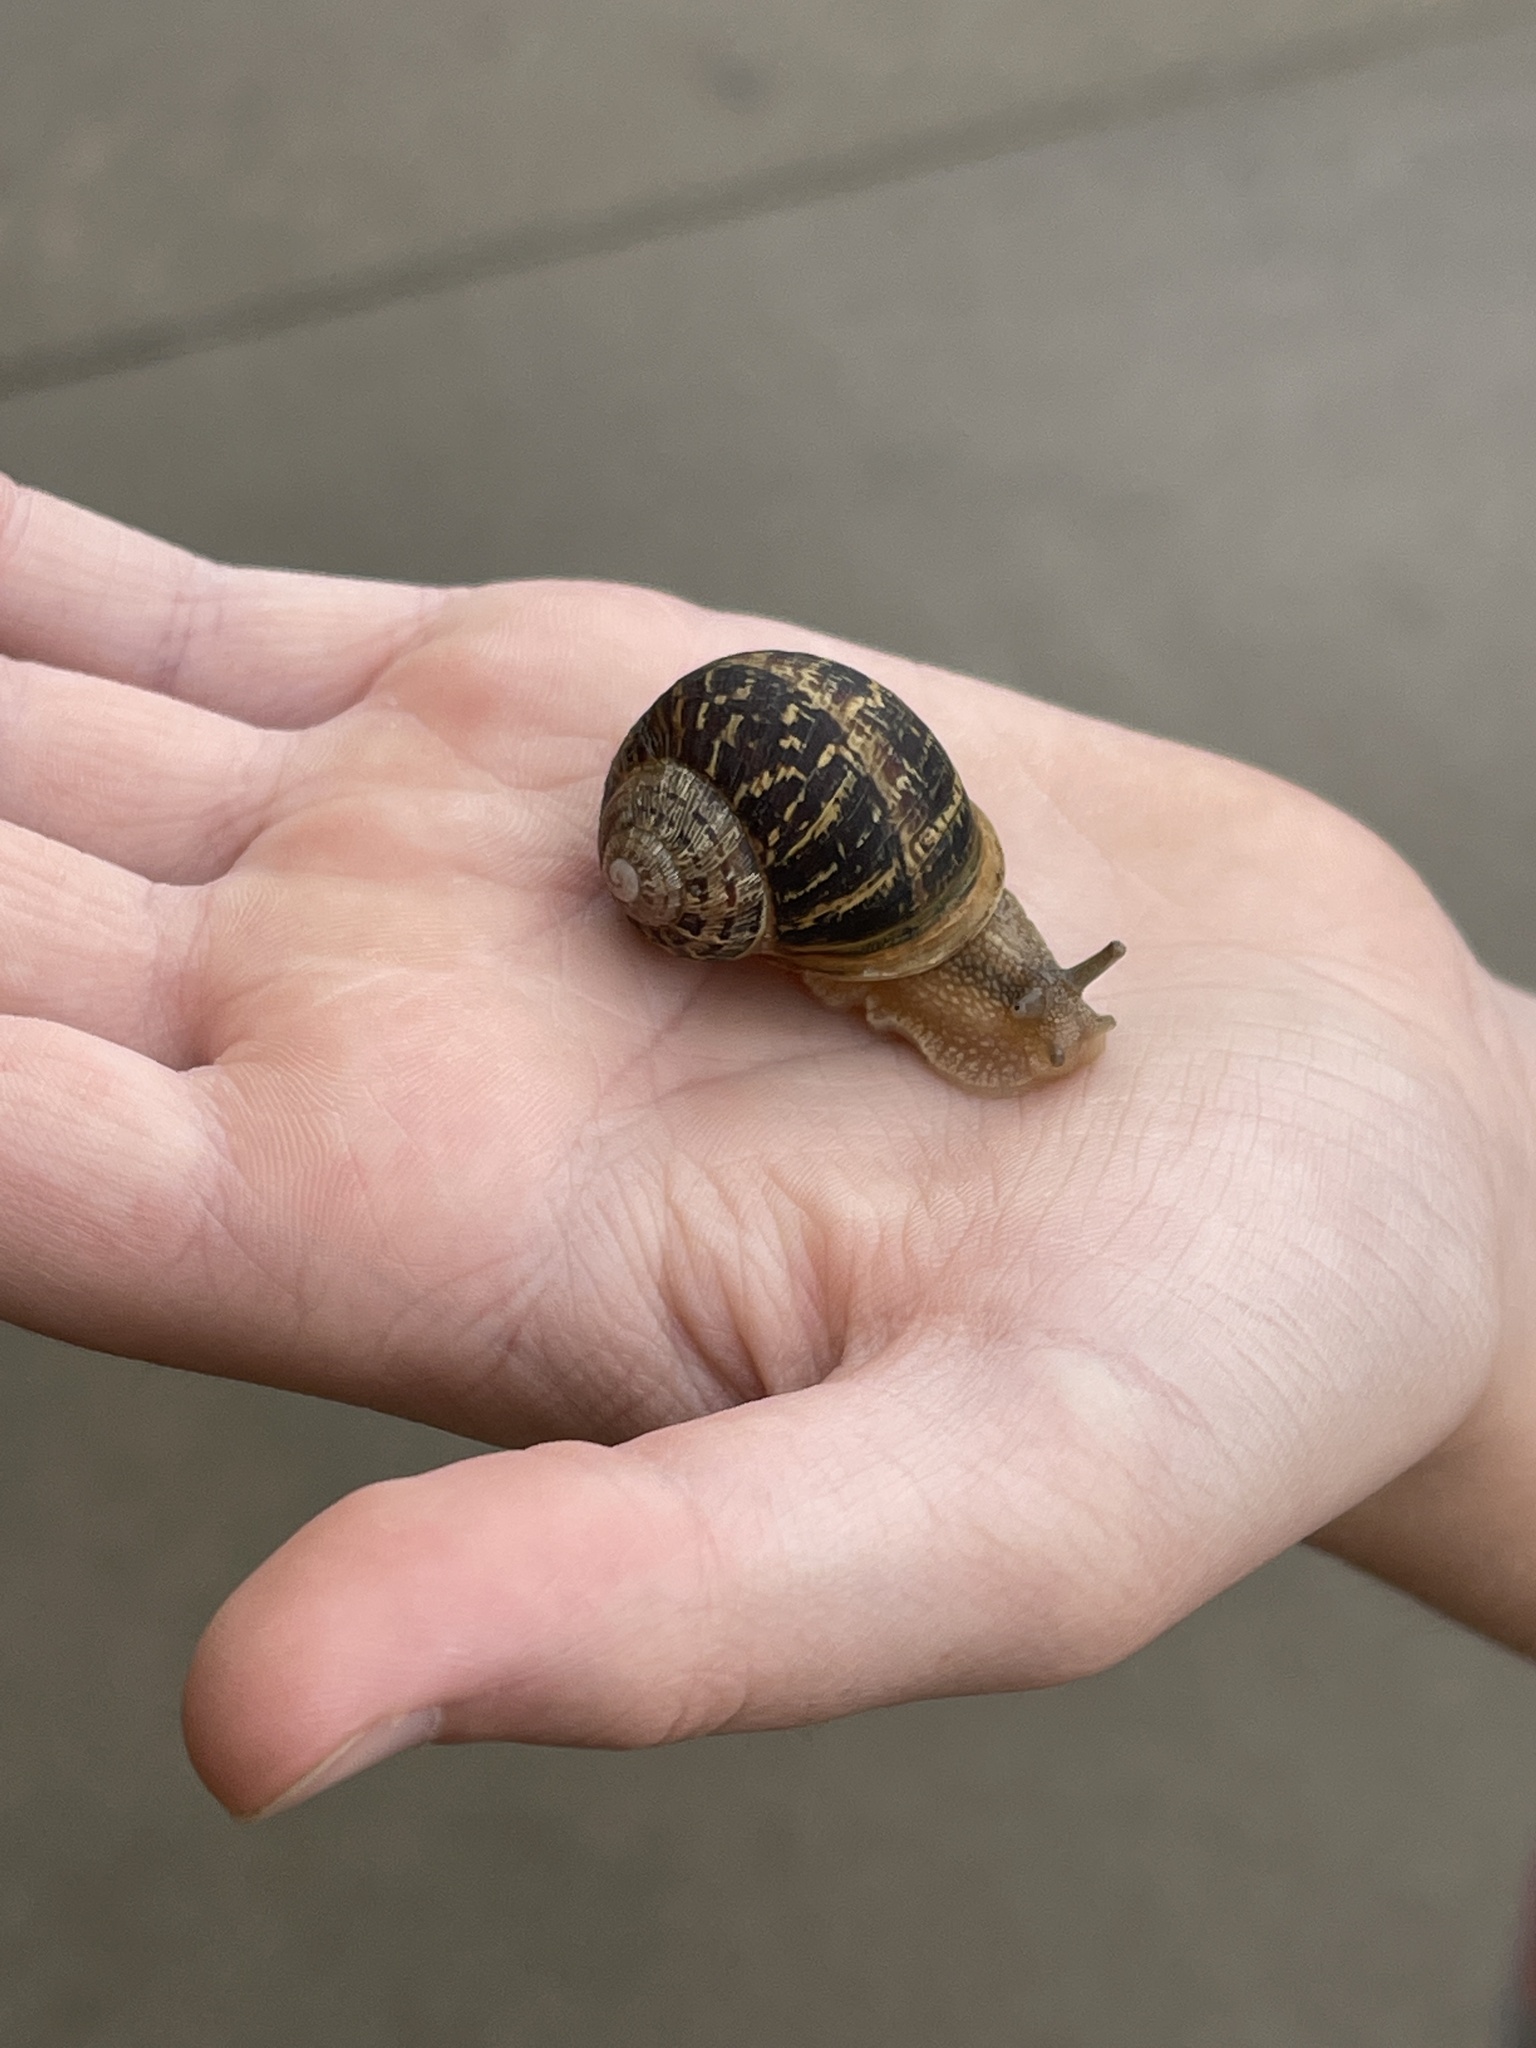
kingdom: Animalia
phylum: Mollusca
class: Gastropoda
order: Stylommatophora
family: Helicidae
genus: Cornu
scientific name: Cornu aspersum
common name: Brown garden snail
